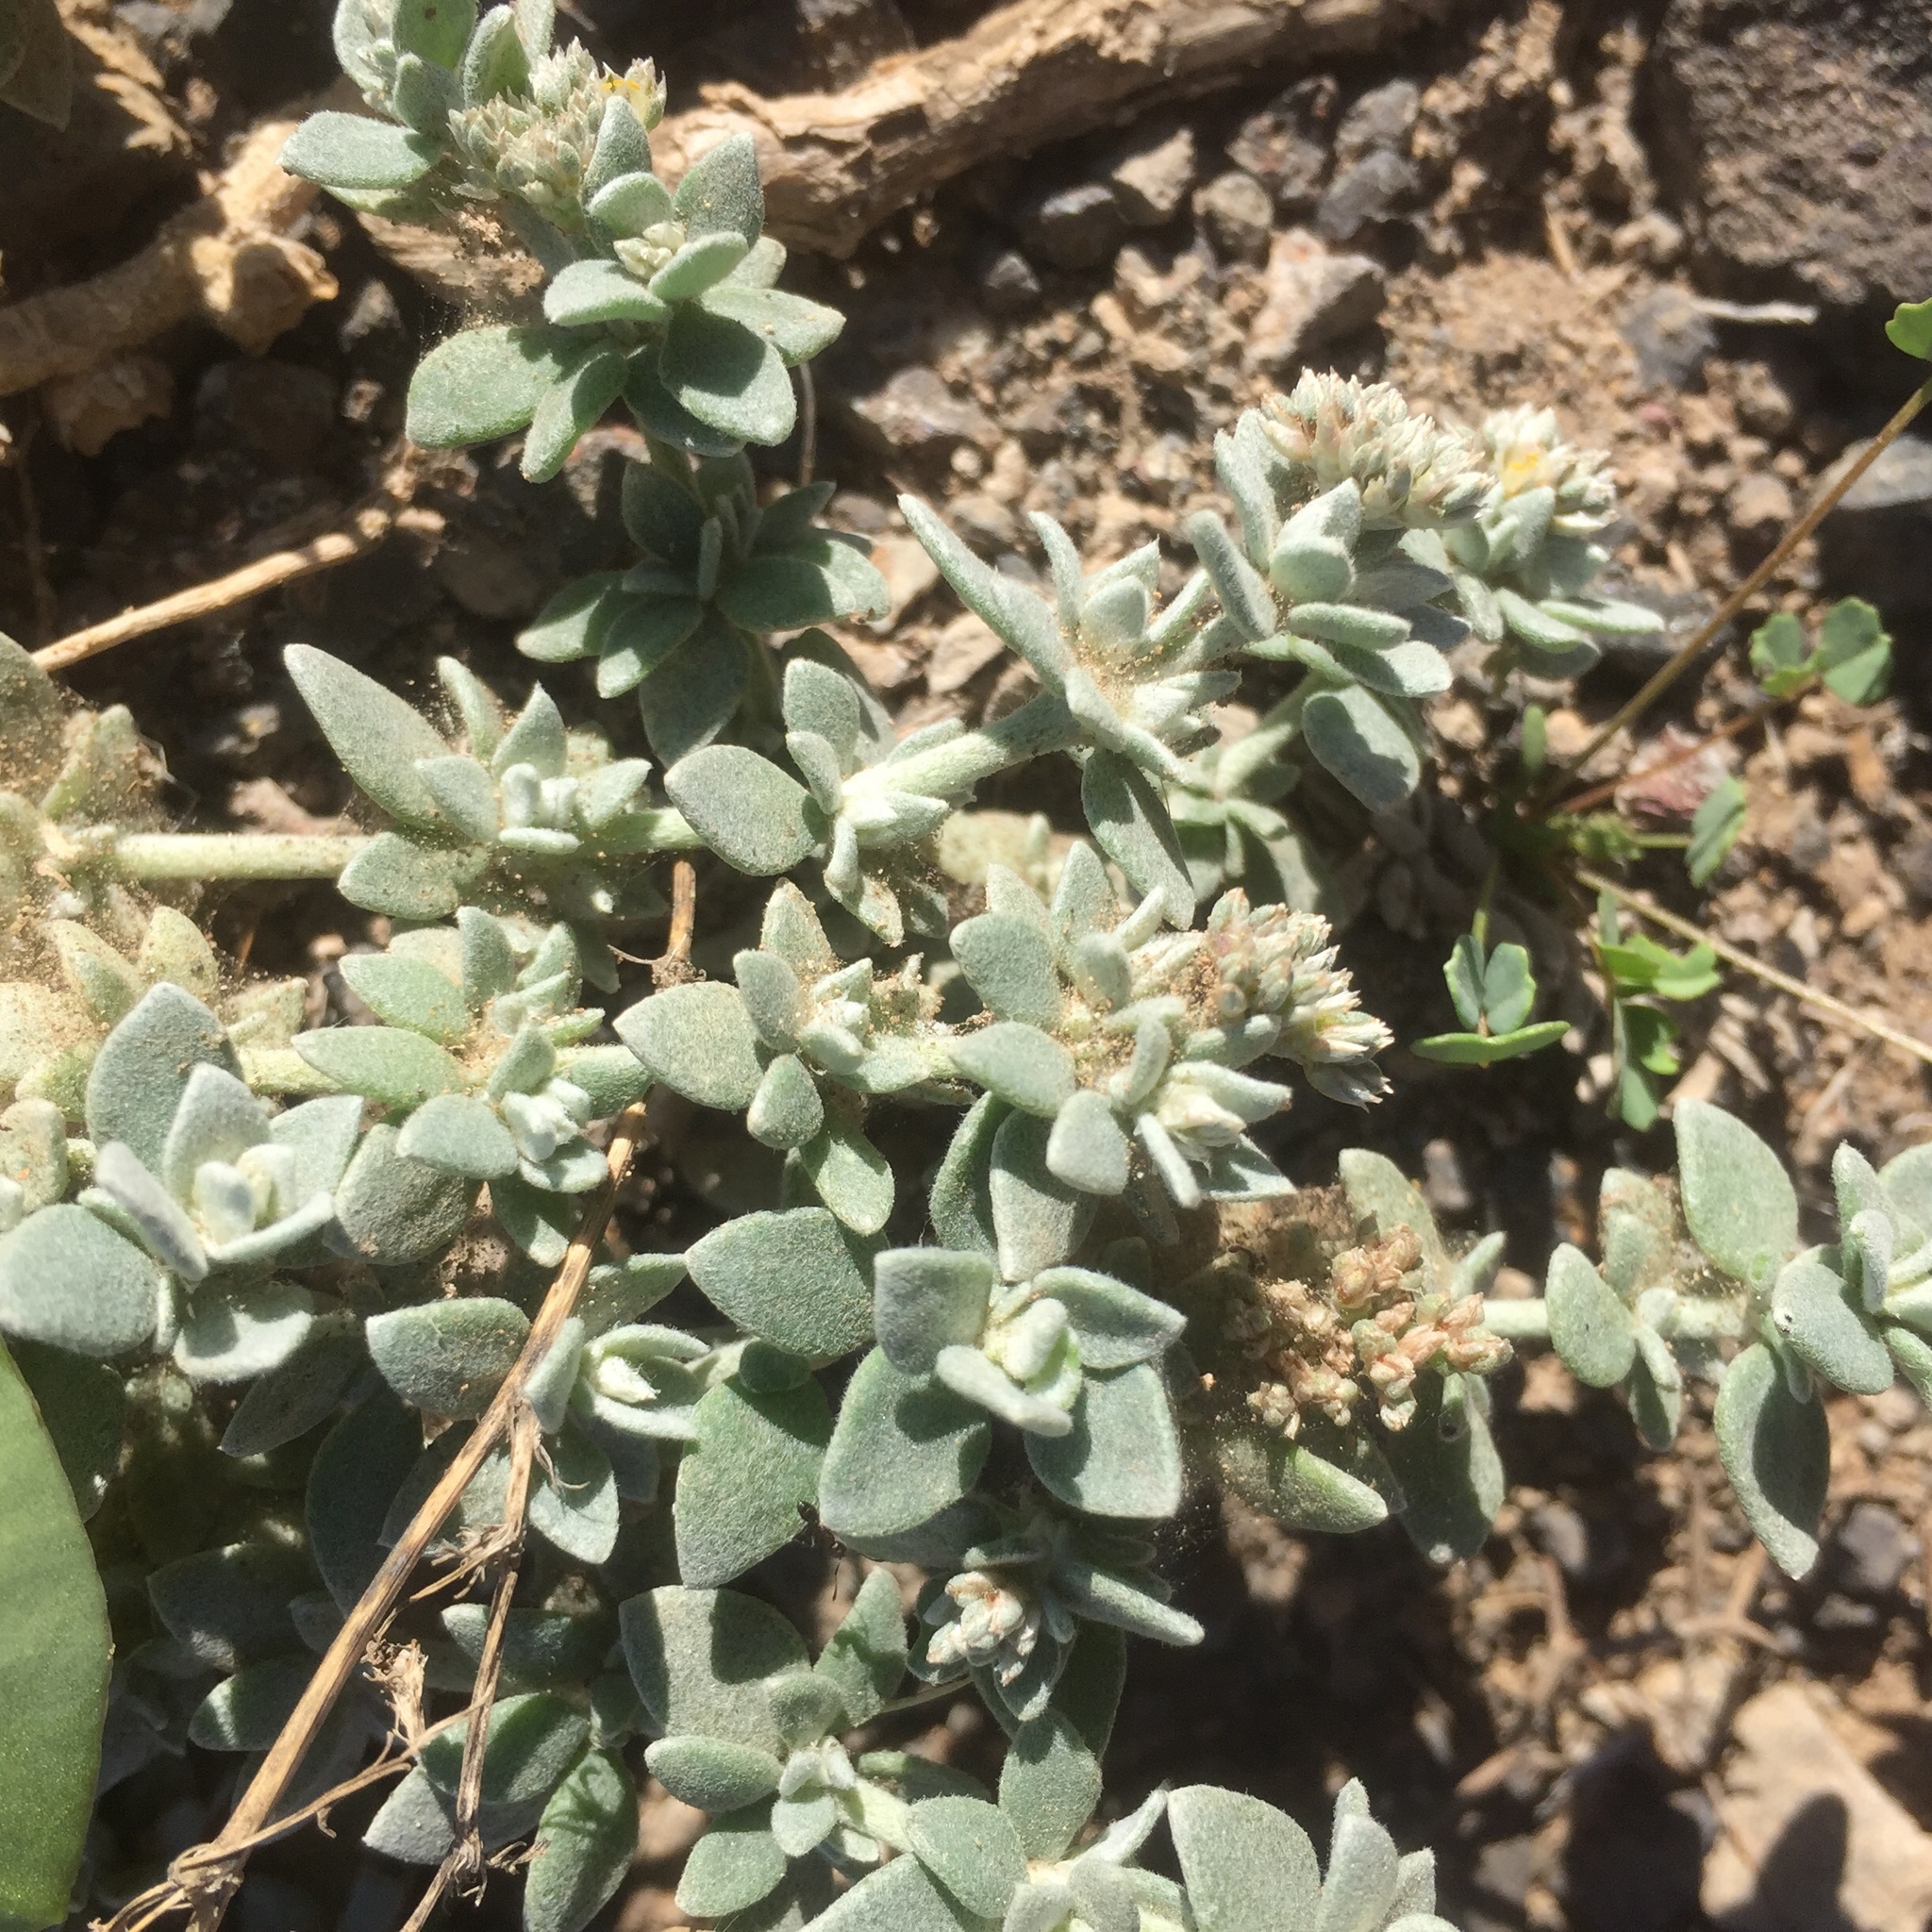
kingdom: Plantae
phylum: Tracheophyta
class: Magnoliopsida
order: Caryophyllales
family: Caryophyllaceae
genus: Polycarpaea
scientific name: Polycarpaea nivea
